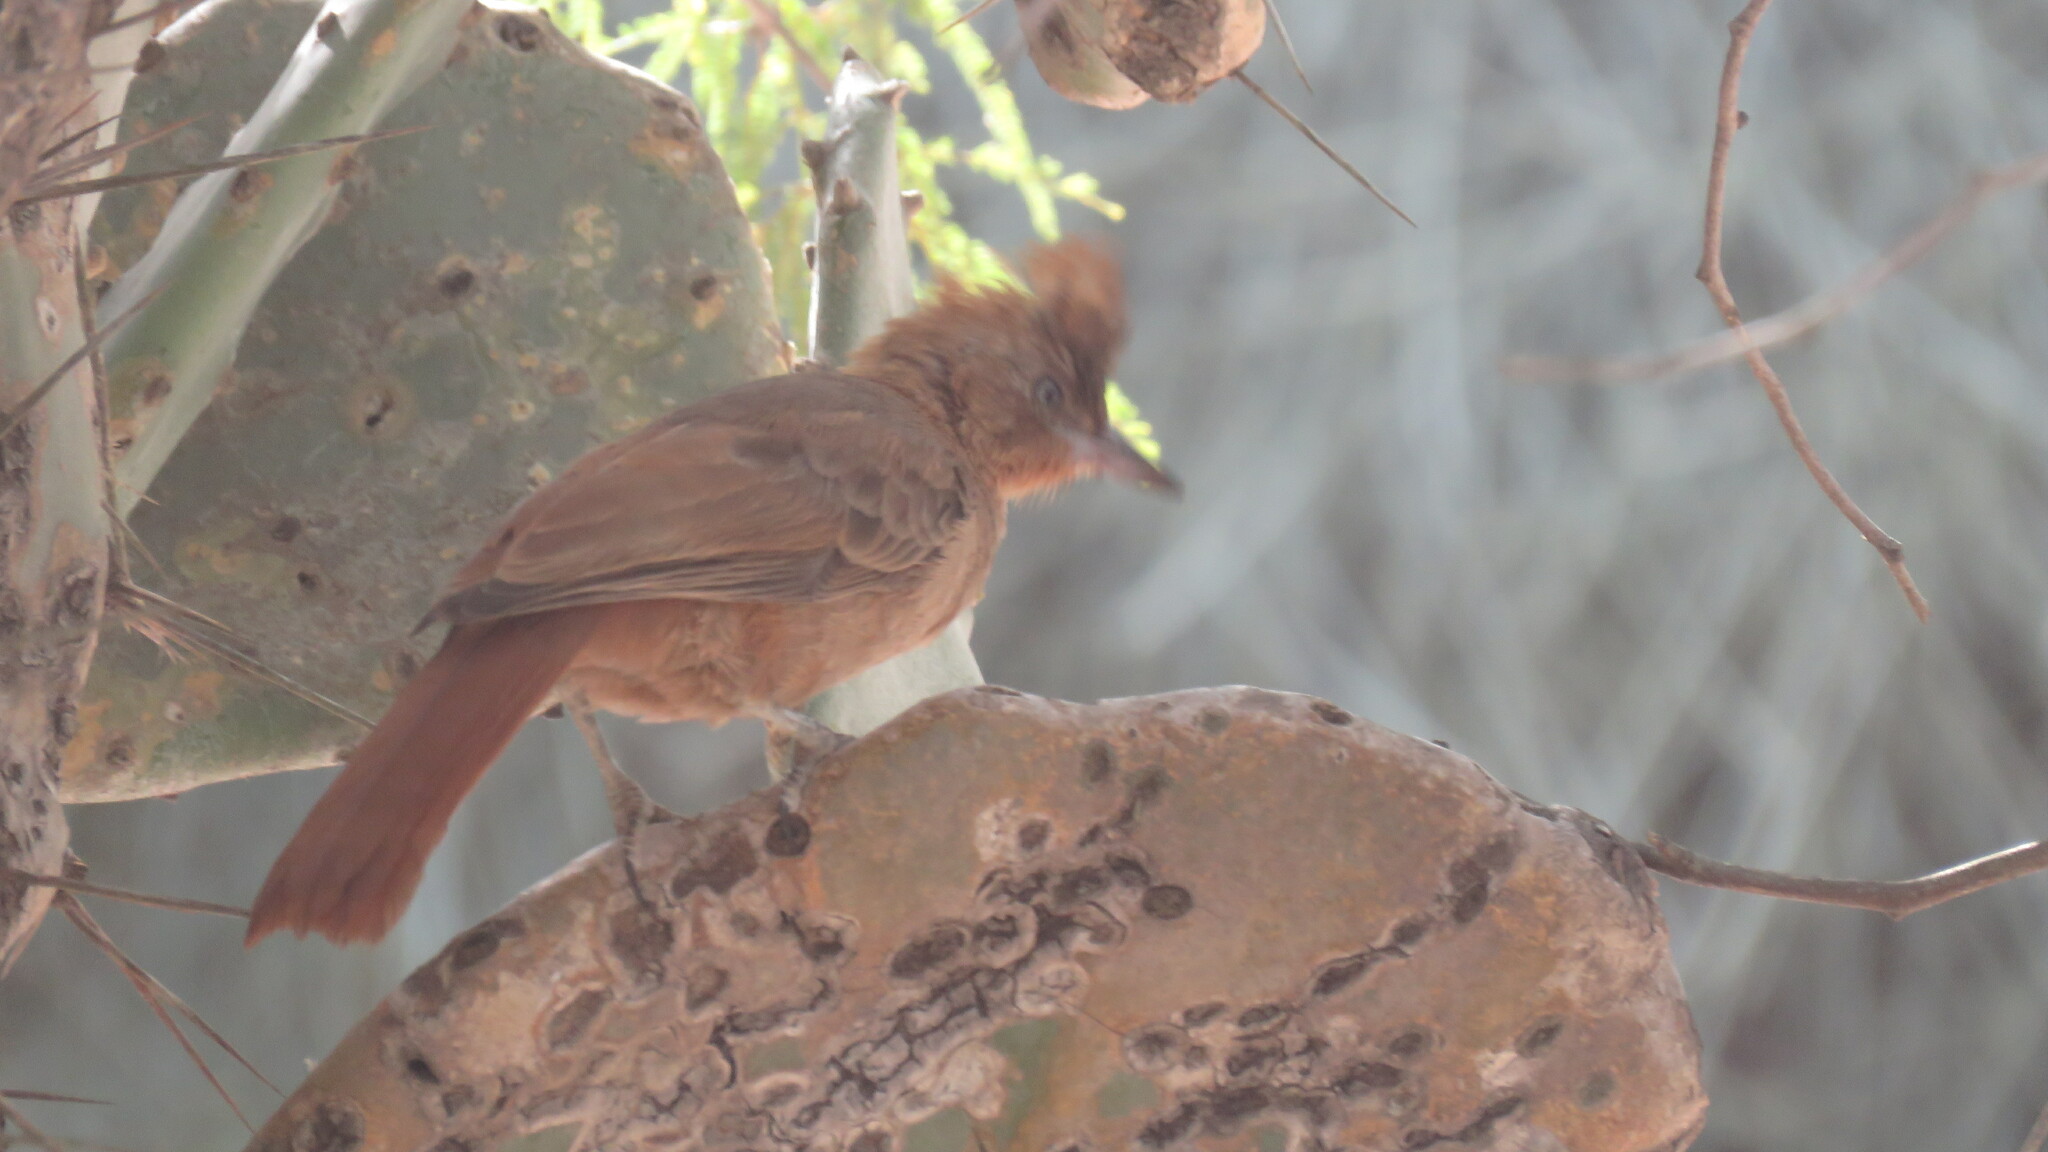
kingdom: Animalia
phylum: Chordata
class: Aves
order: Passeriformes
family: Furnariidae
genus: Pseudoseisura
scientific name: Pseudoseisura lophotes
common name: Brown cacholote
